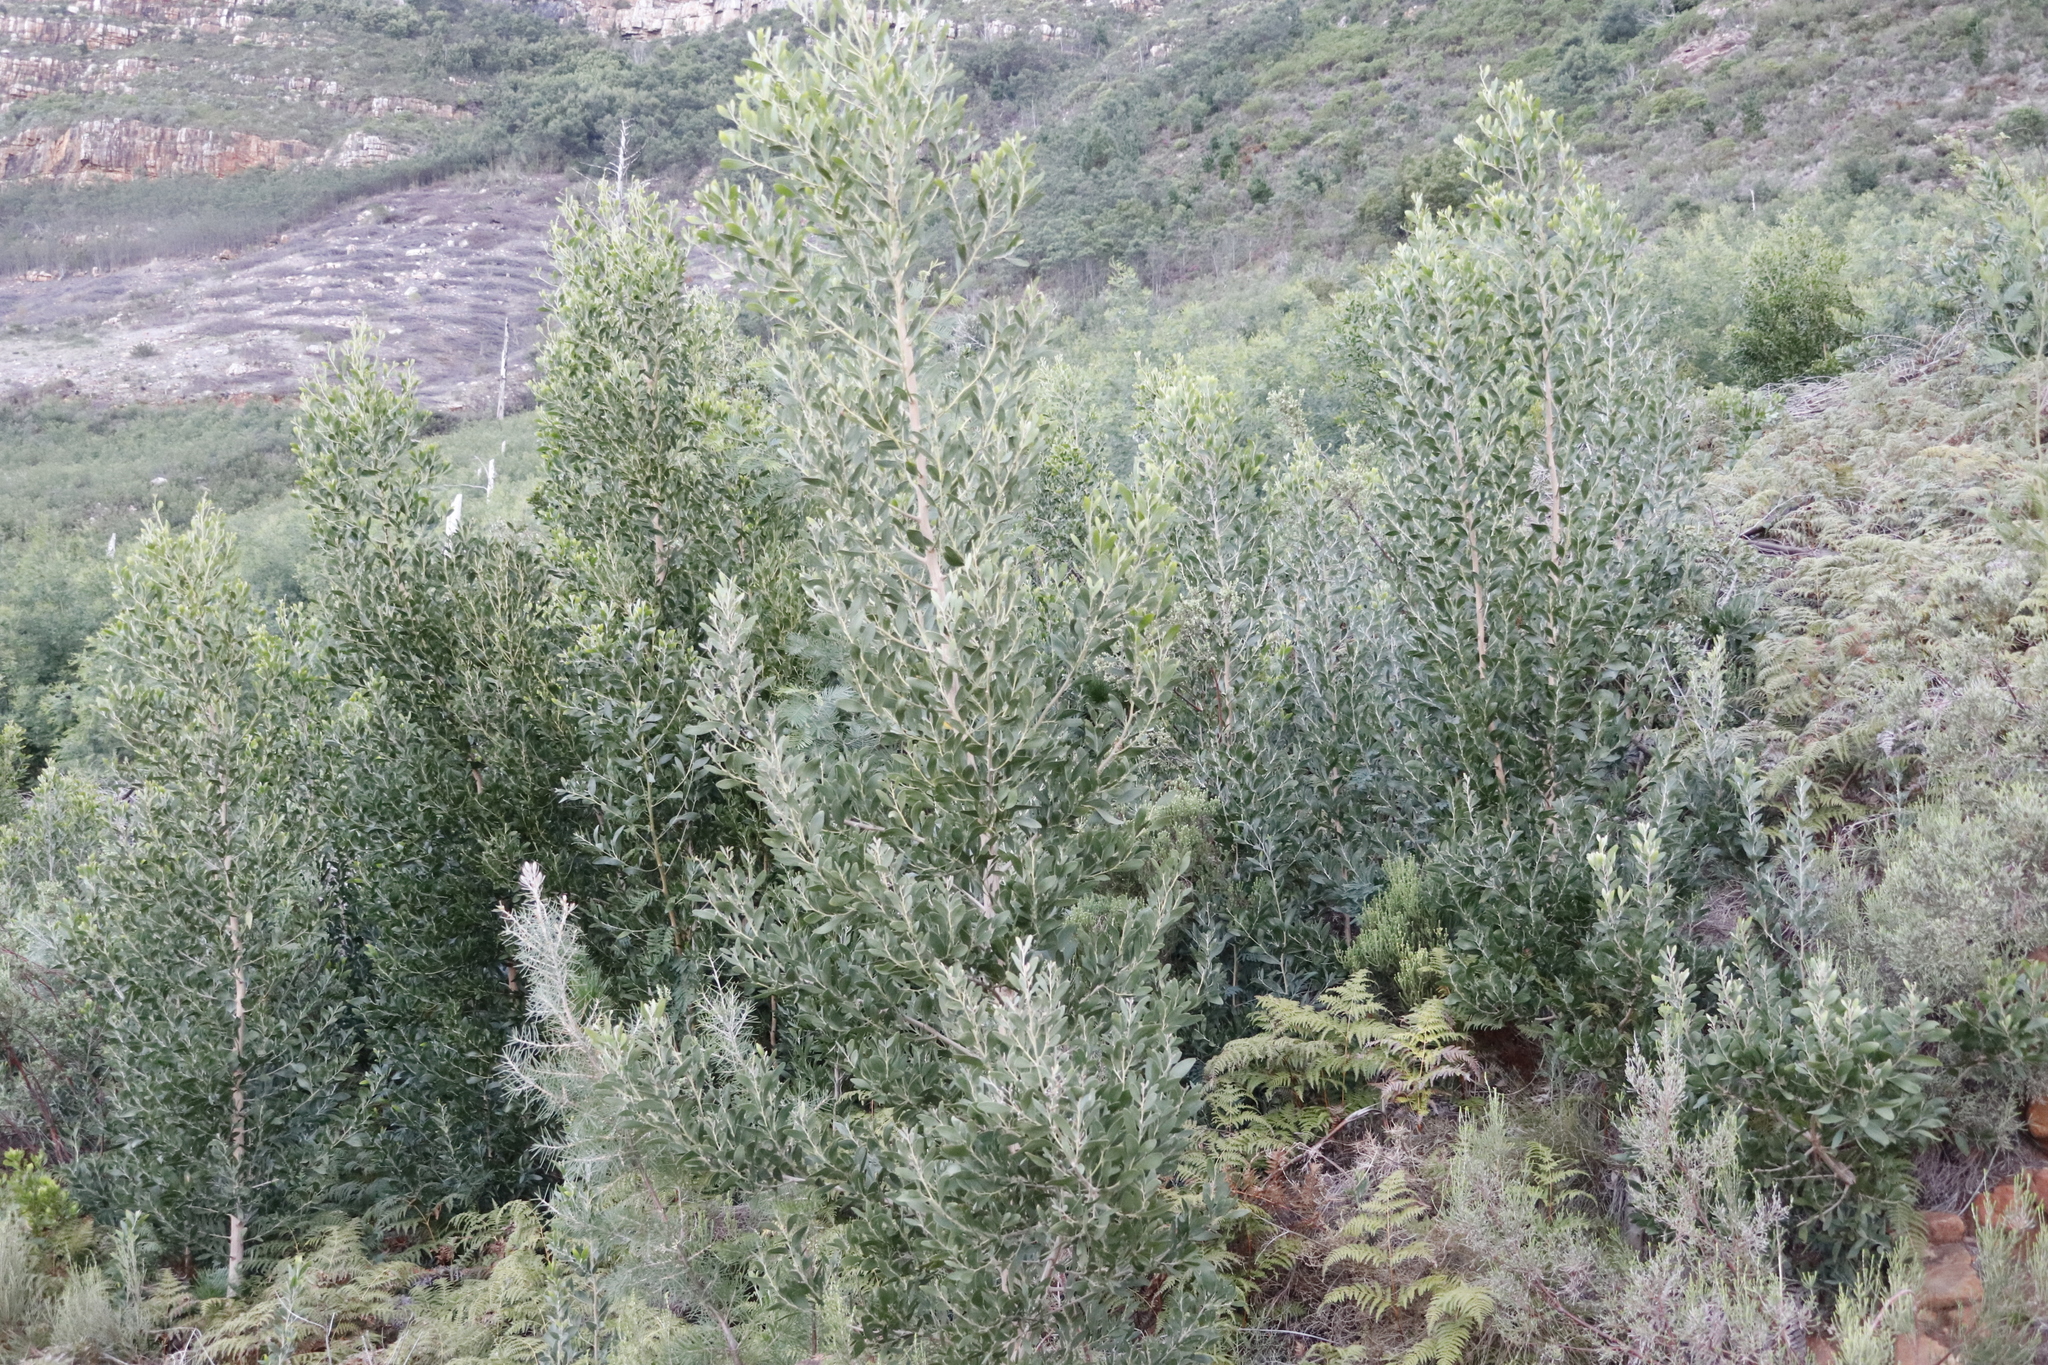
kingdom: Plantae
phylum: Tracheophyta
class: Magnoliopsida
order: Fabales
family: Fabaceae
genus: Acacia
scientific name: Acacia melanoxylon
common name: Blackwood
